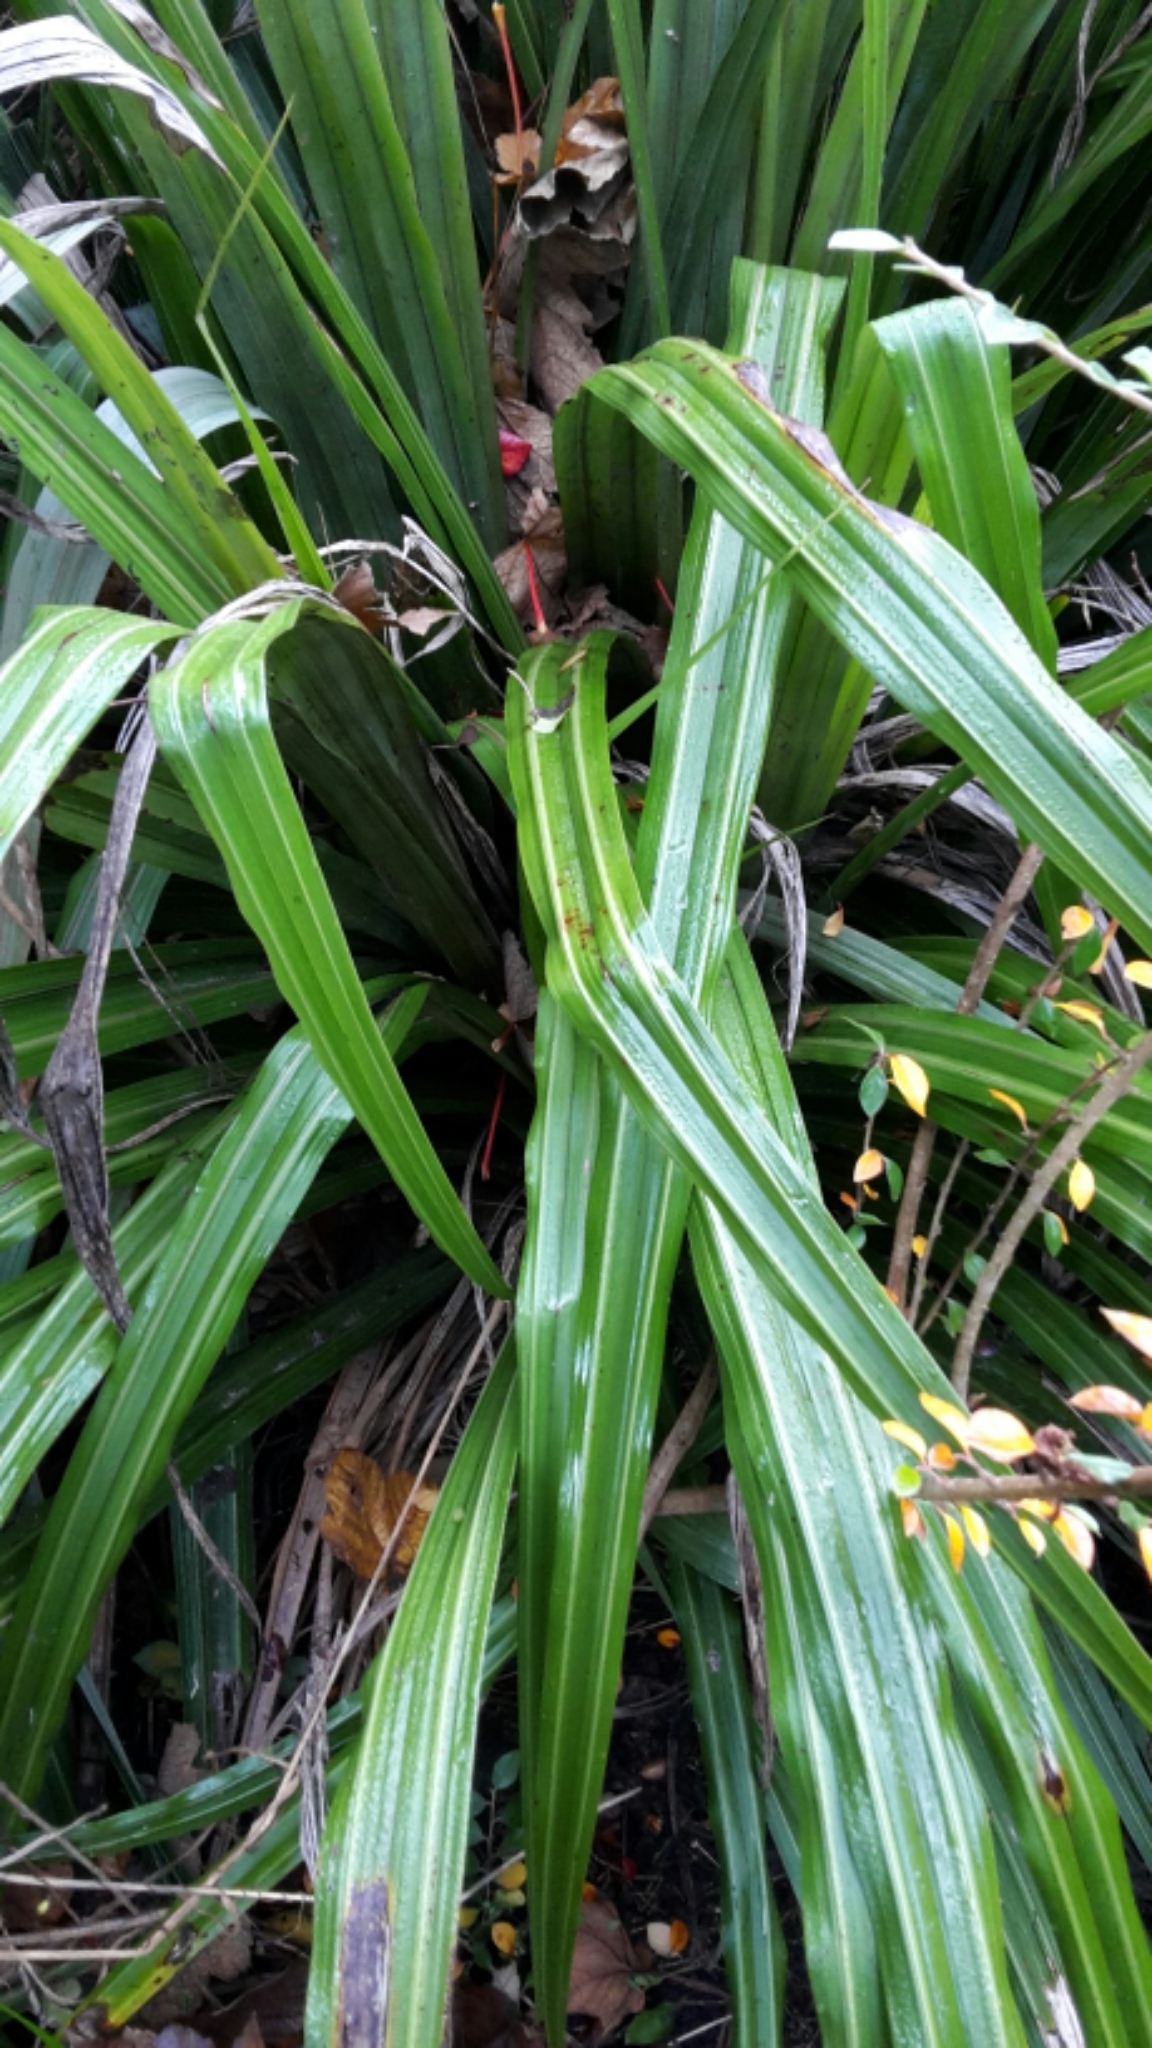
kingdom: Plantae
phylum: Tracheophyta
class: Liliopsida
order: Asparagales
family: Asteliaceae
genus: Astelia
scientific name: Astelia fragrans
